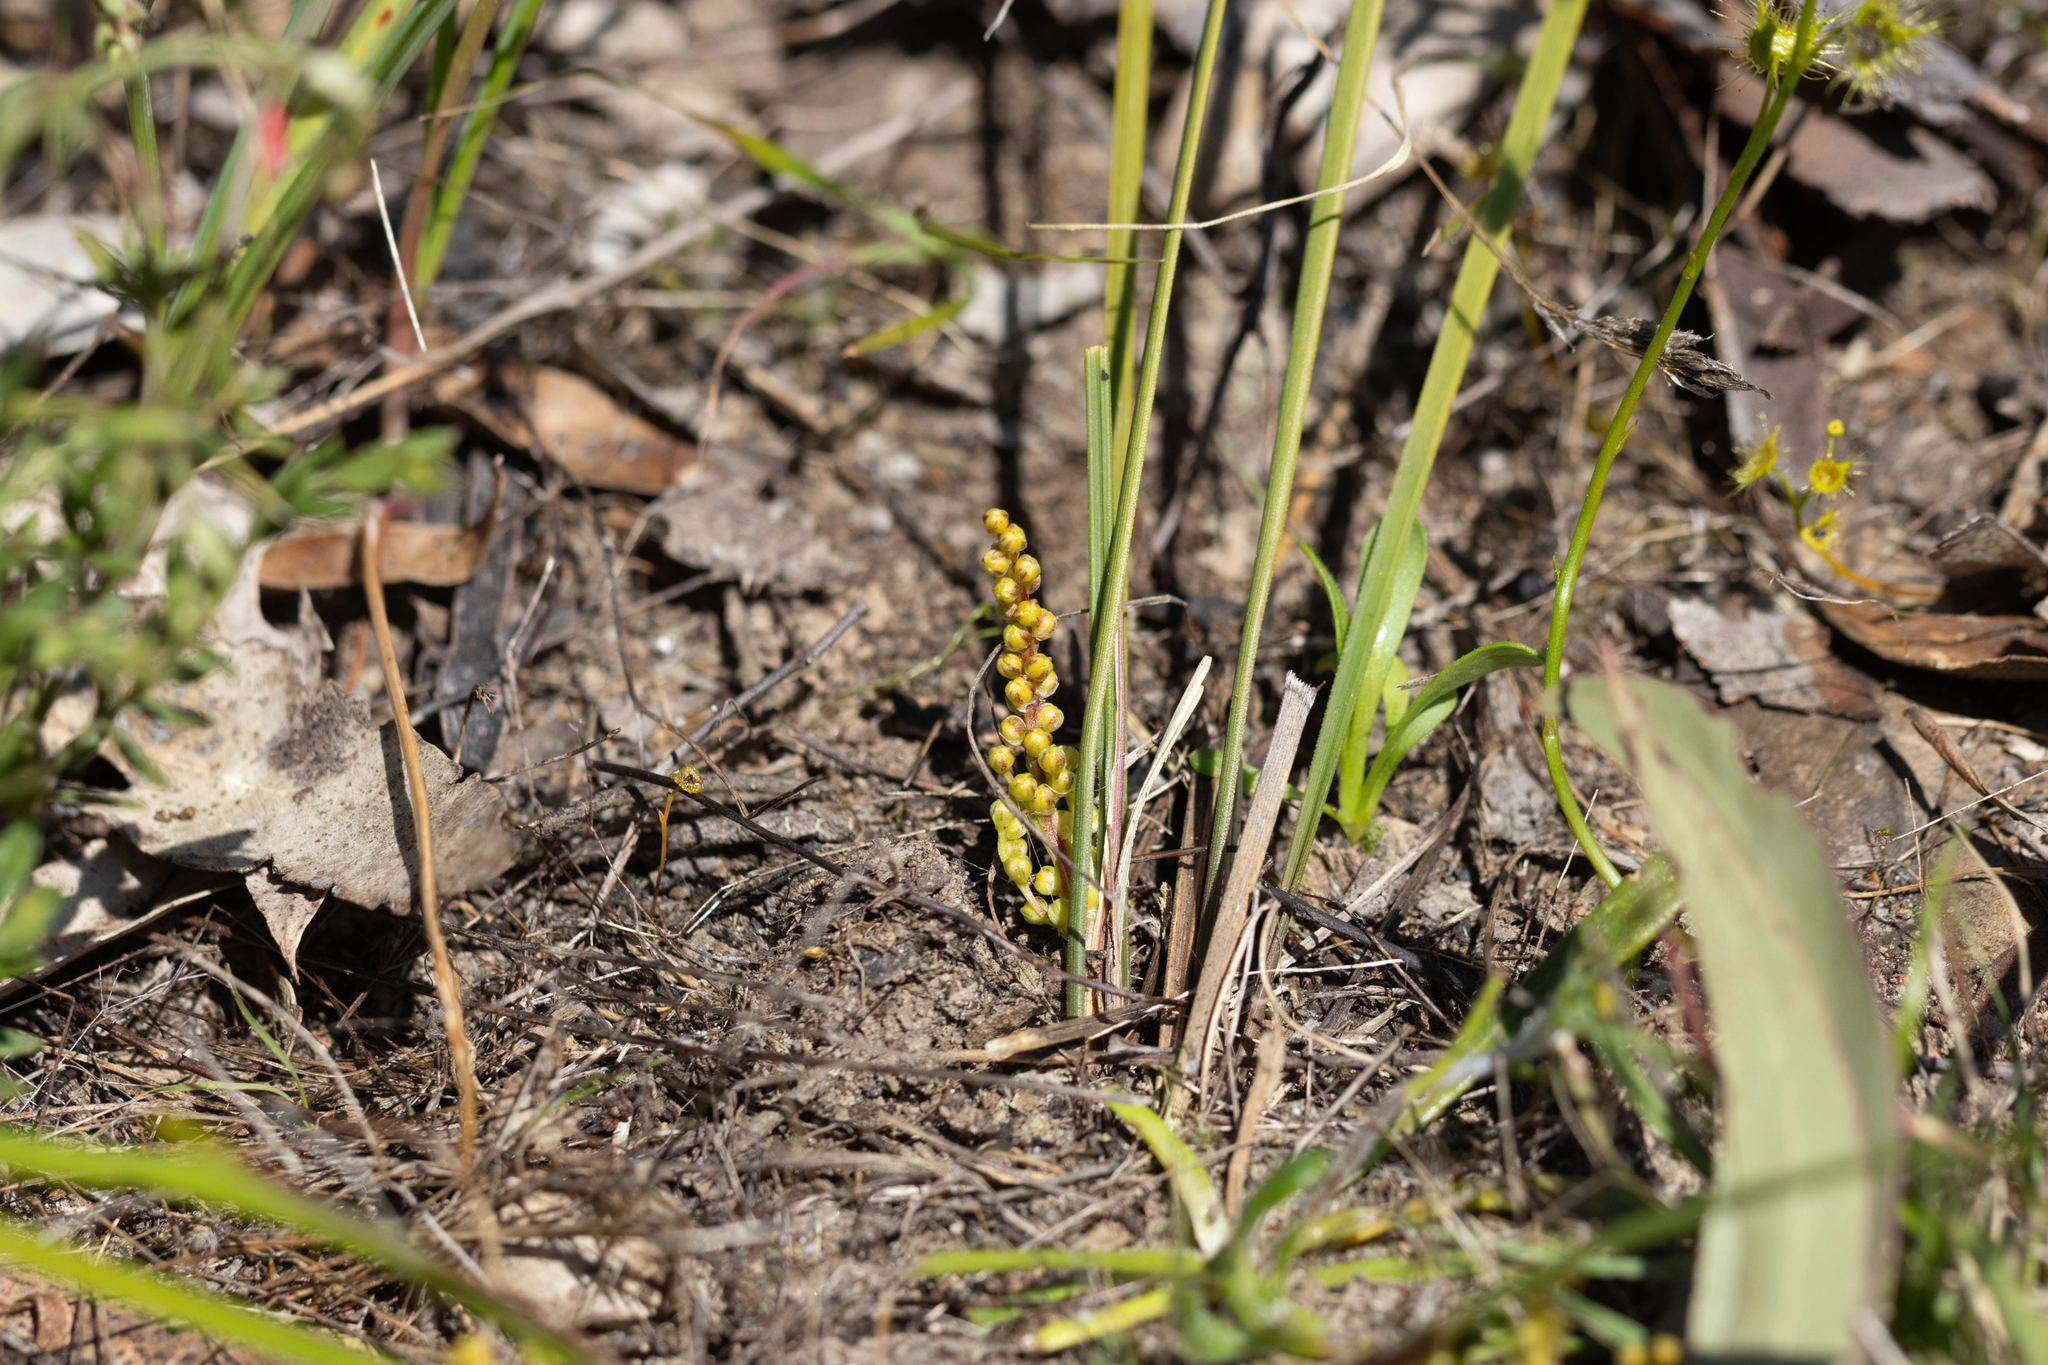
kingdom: Plantae
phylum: Tracheophyta
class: Liliopsida
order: Asparagales
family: Asparagaceae
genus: Lomandra
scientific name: Lomandra sororia
